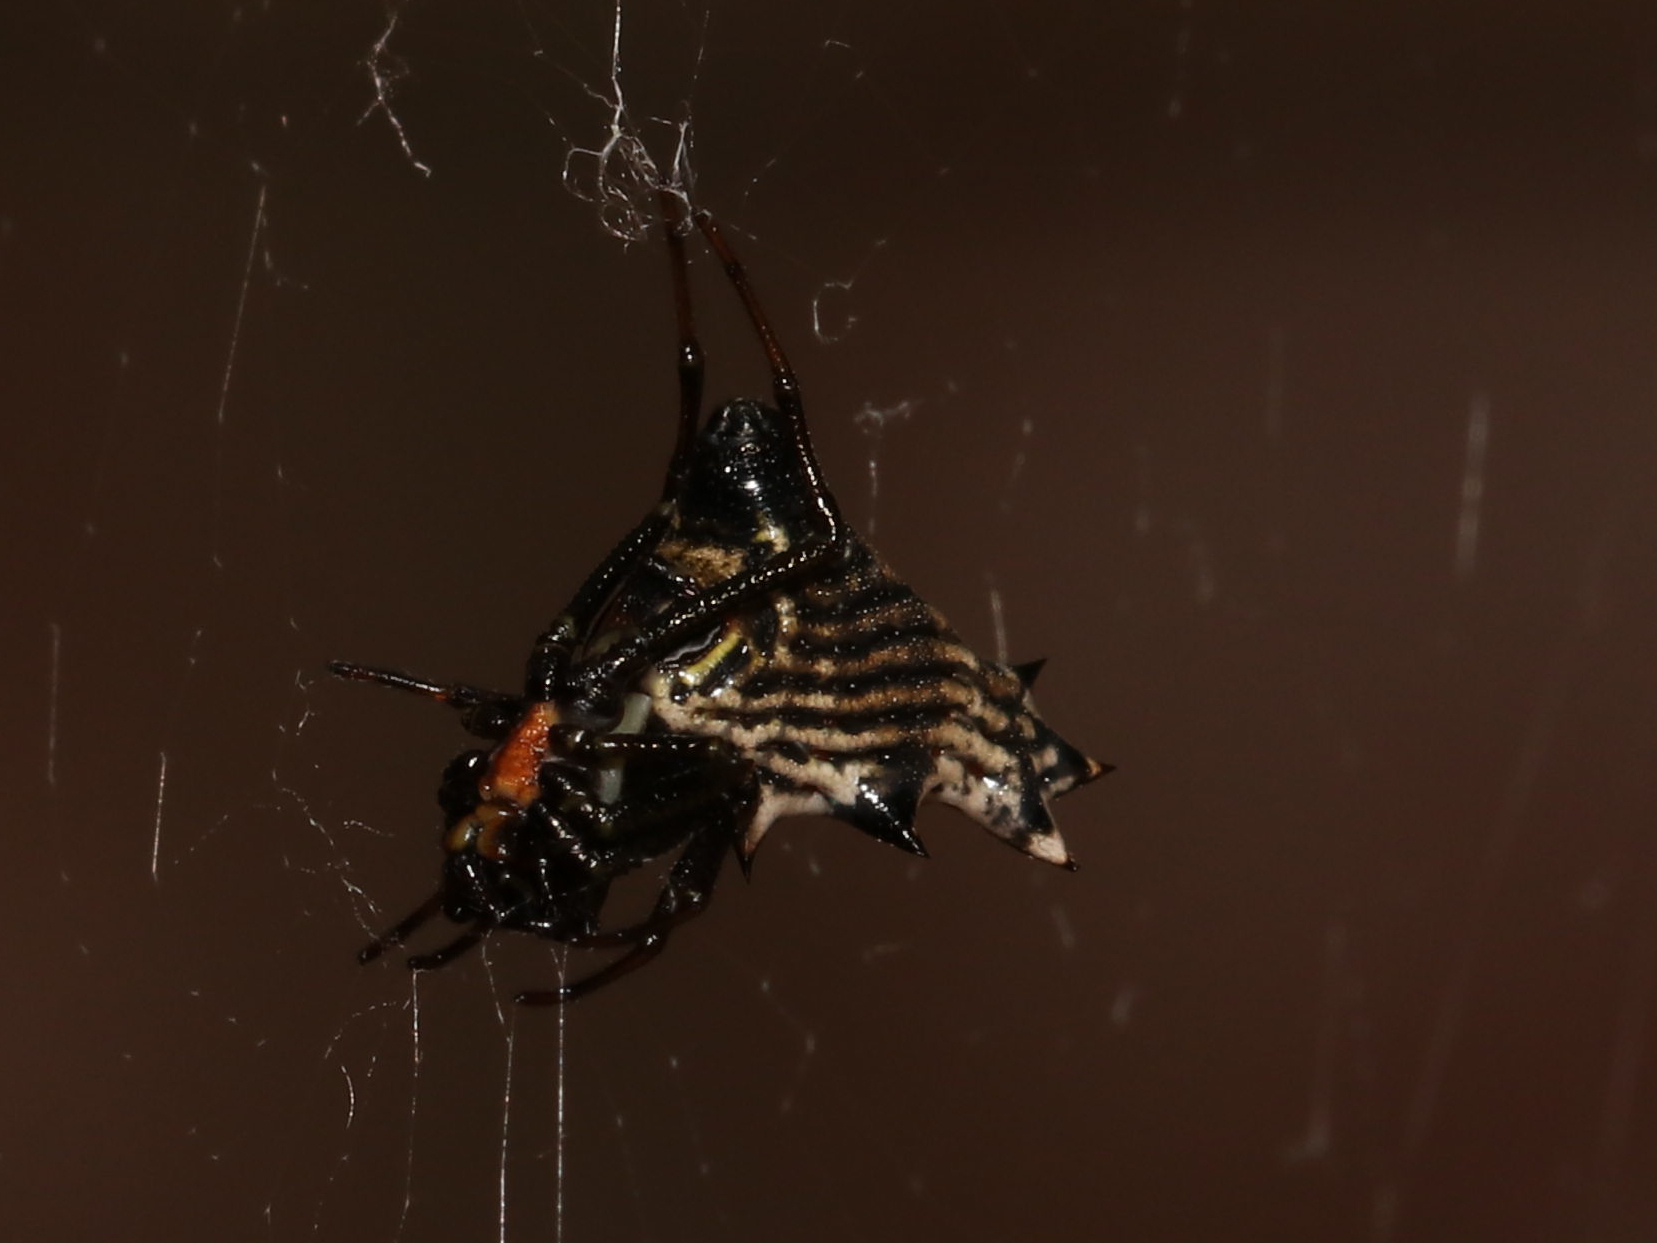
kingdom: Animalia
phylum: Arthropoda
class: Arachnida
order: Araneae
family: Araneidae
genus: Micrathena
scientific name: Micrathena gracilis
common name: Orb weavers
